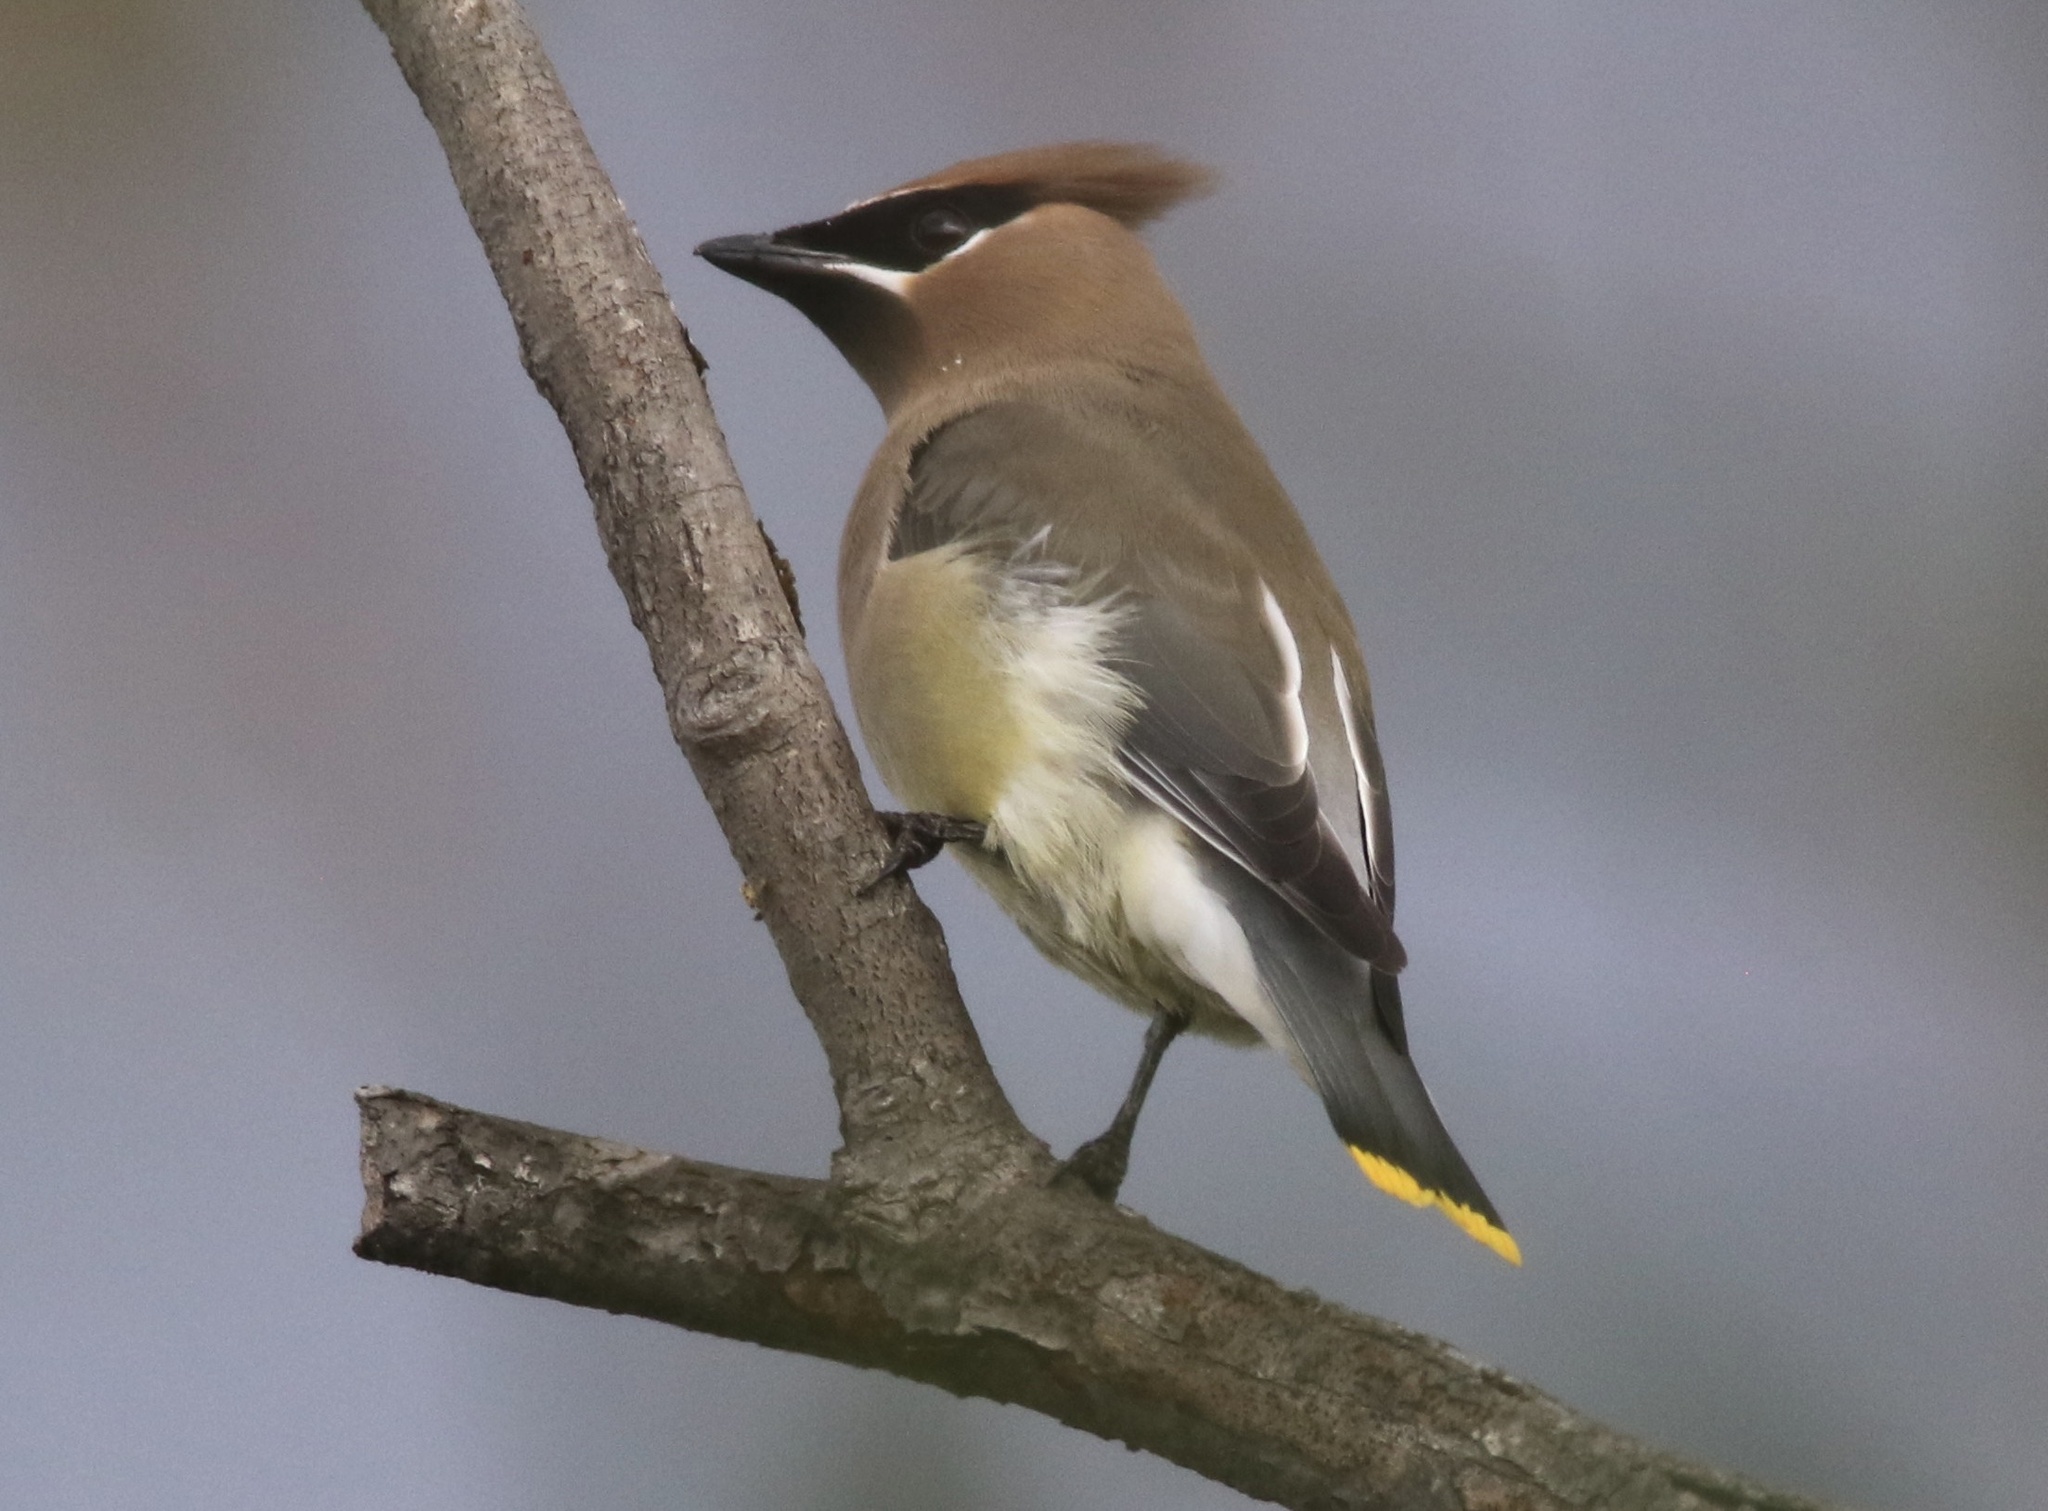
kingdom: Animalia
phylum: Chordata
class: Aves
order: Passeriformes
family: Bombycillidae
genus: Bombycilla
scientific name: Bombycilla cedrorum
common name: Cedar waxwing
